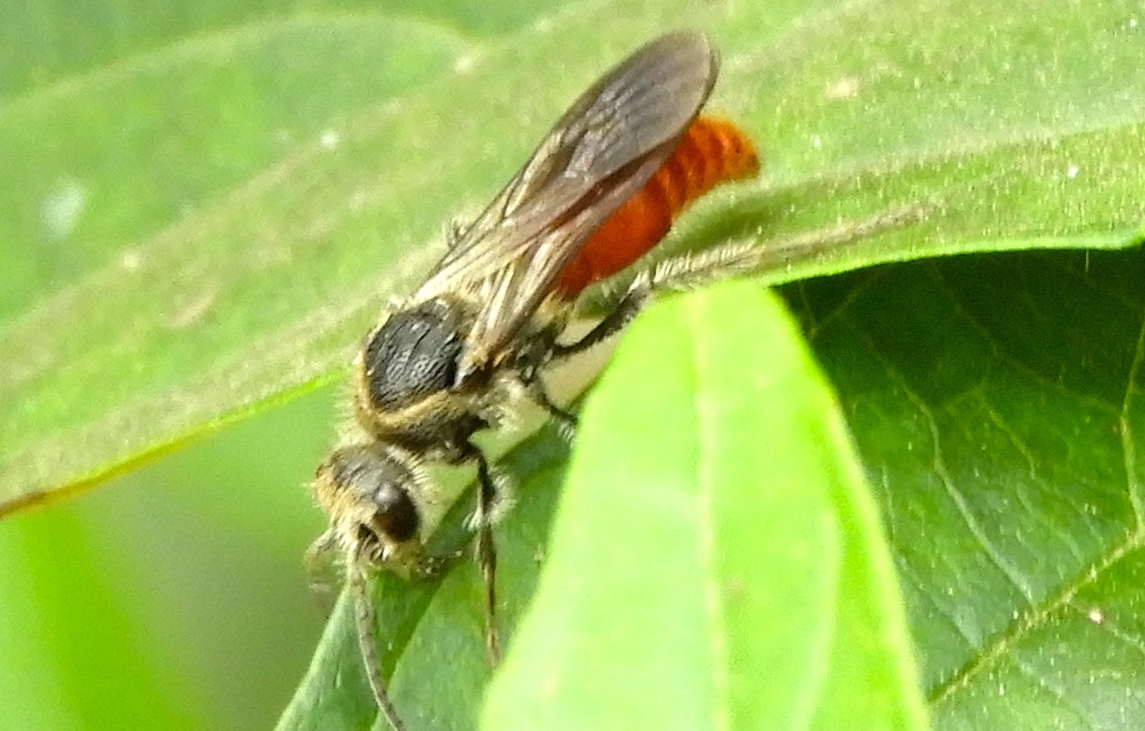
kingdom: Animalia
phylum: Arthropoda
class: Insecta
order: Hymenoptera
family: Mutillidae
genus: Timulla
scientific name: Timulla
